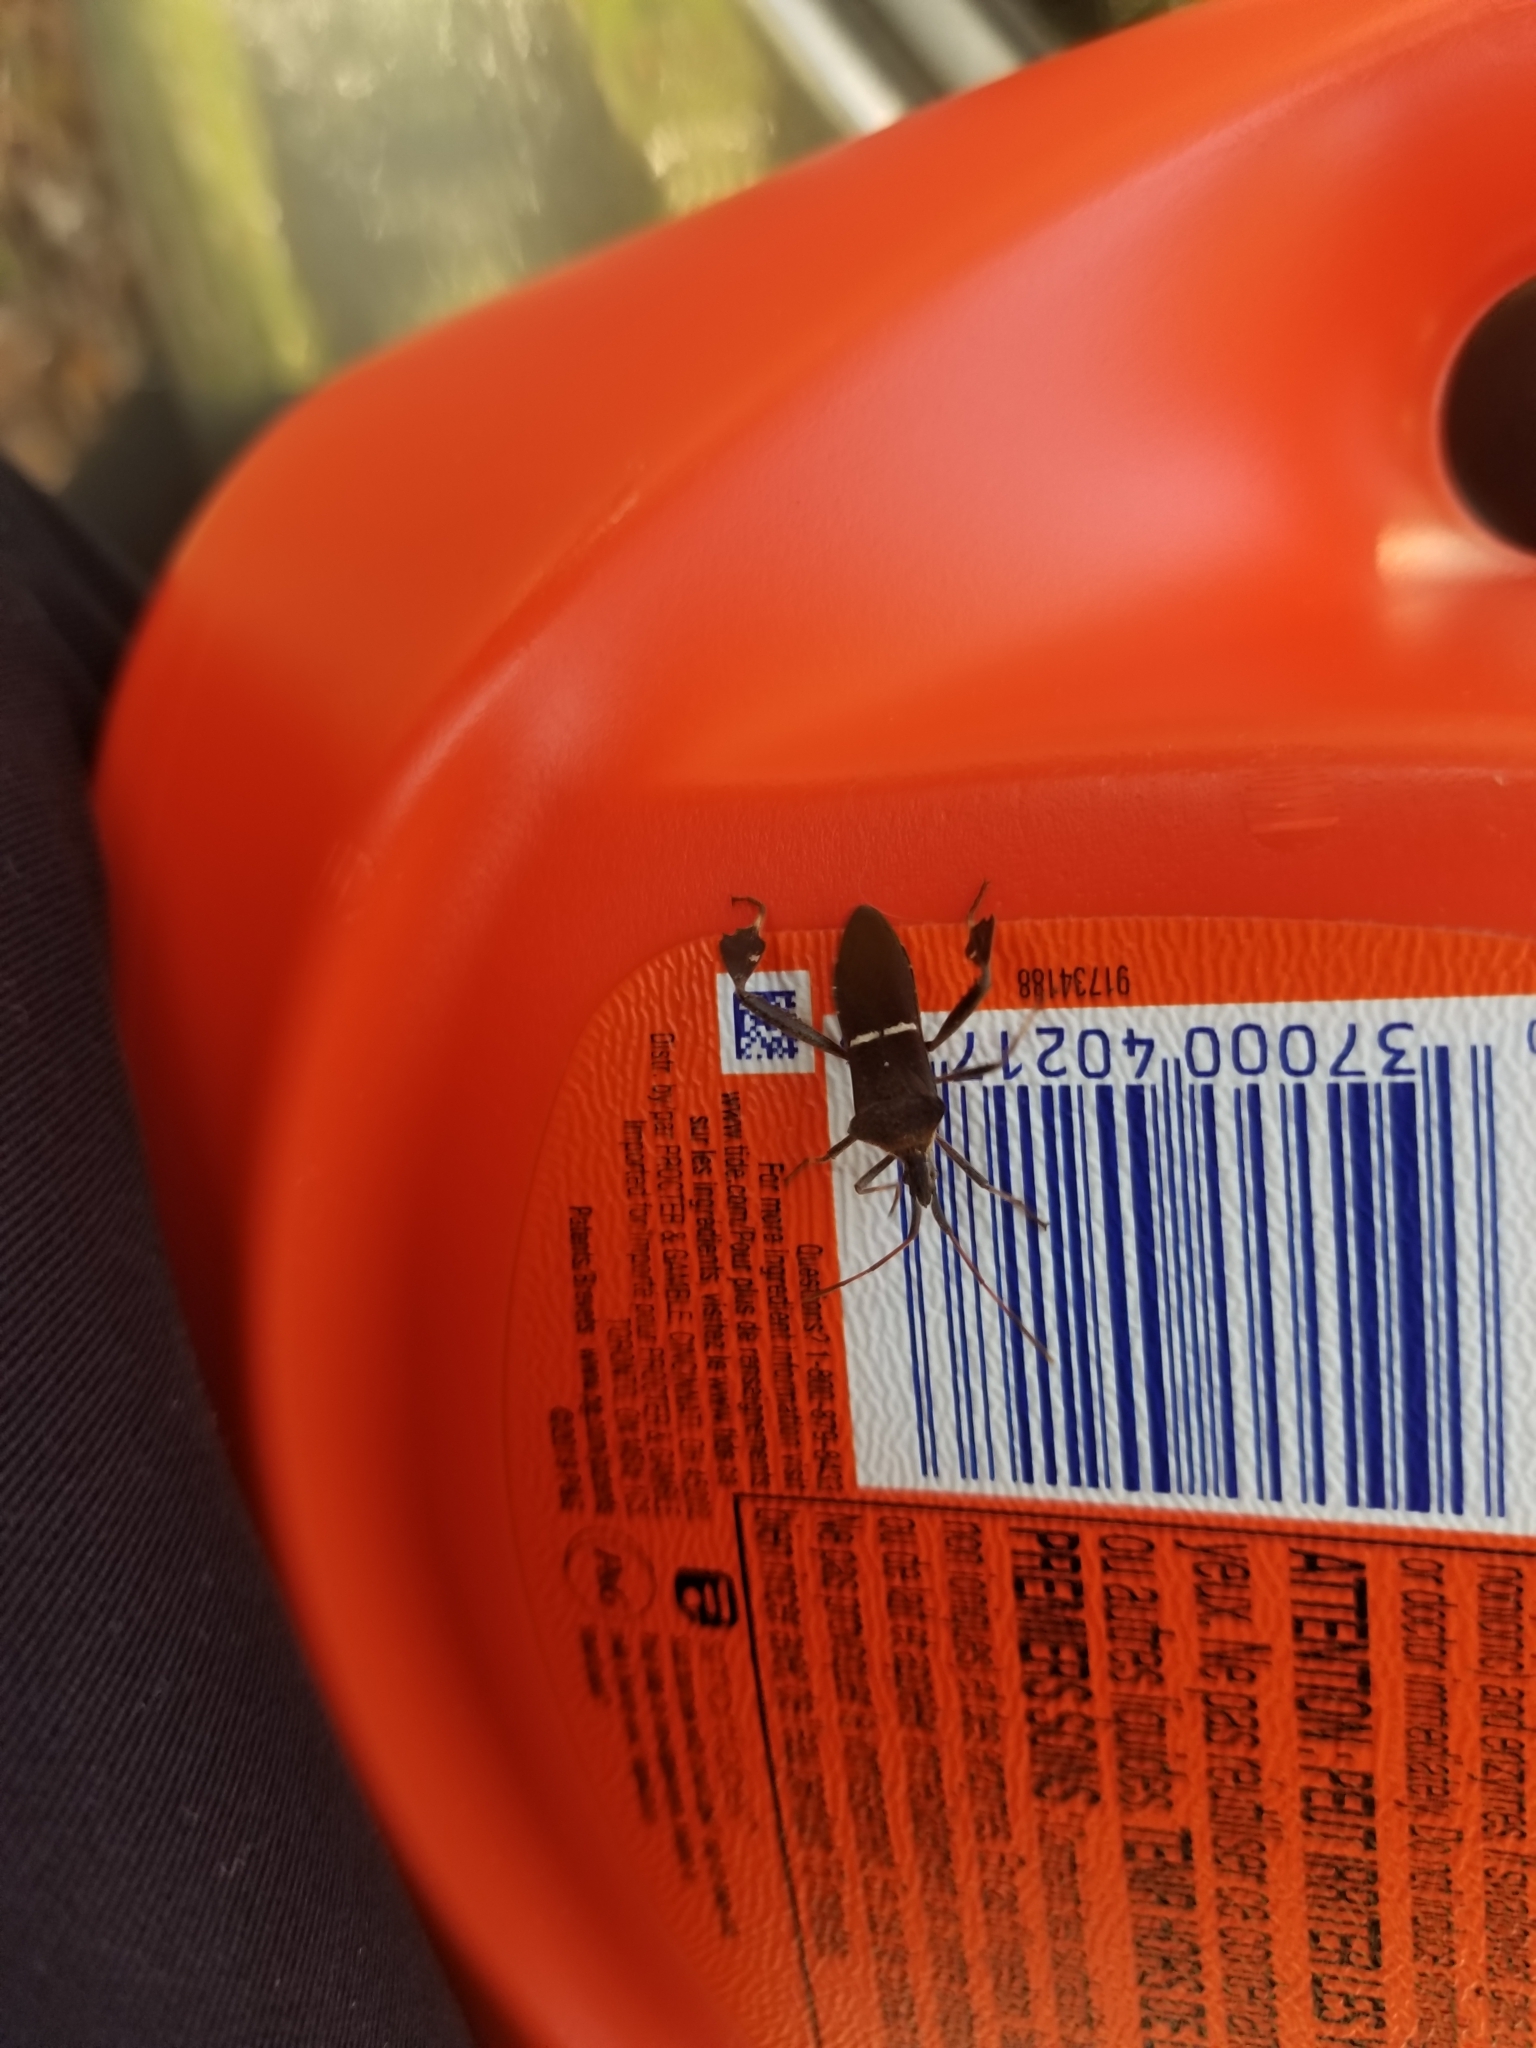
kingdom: Animalia
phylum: Arthropoda
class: Insecta
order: Hemiptera
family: Coreidae
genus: Leptoglossus
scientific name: Leptoglossus phyllopus
